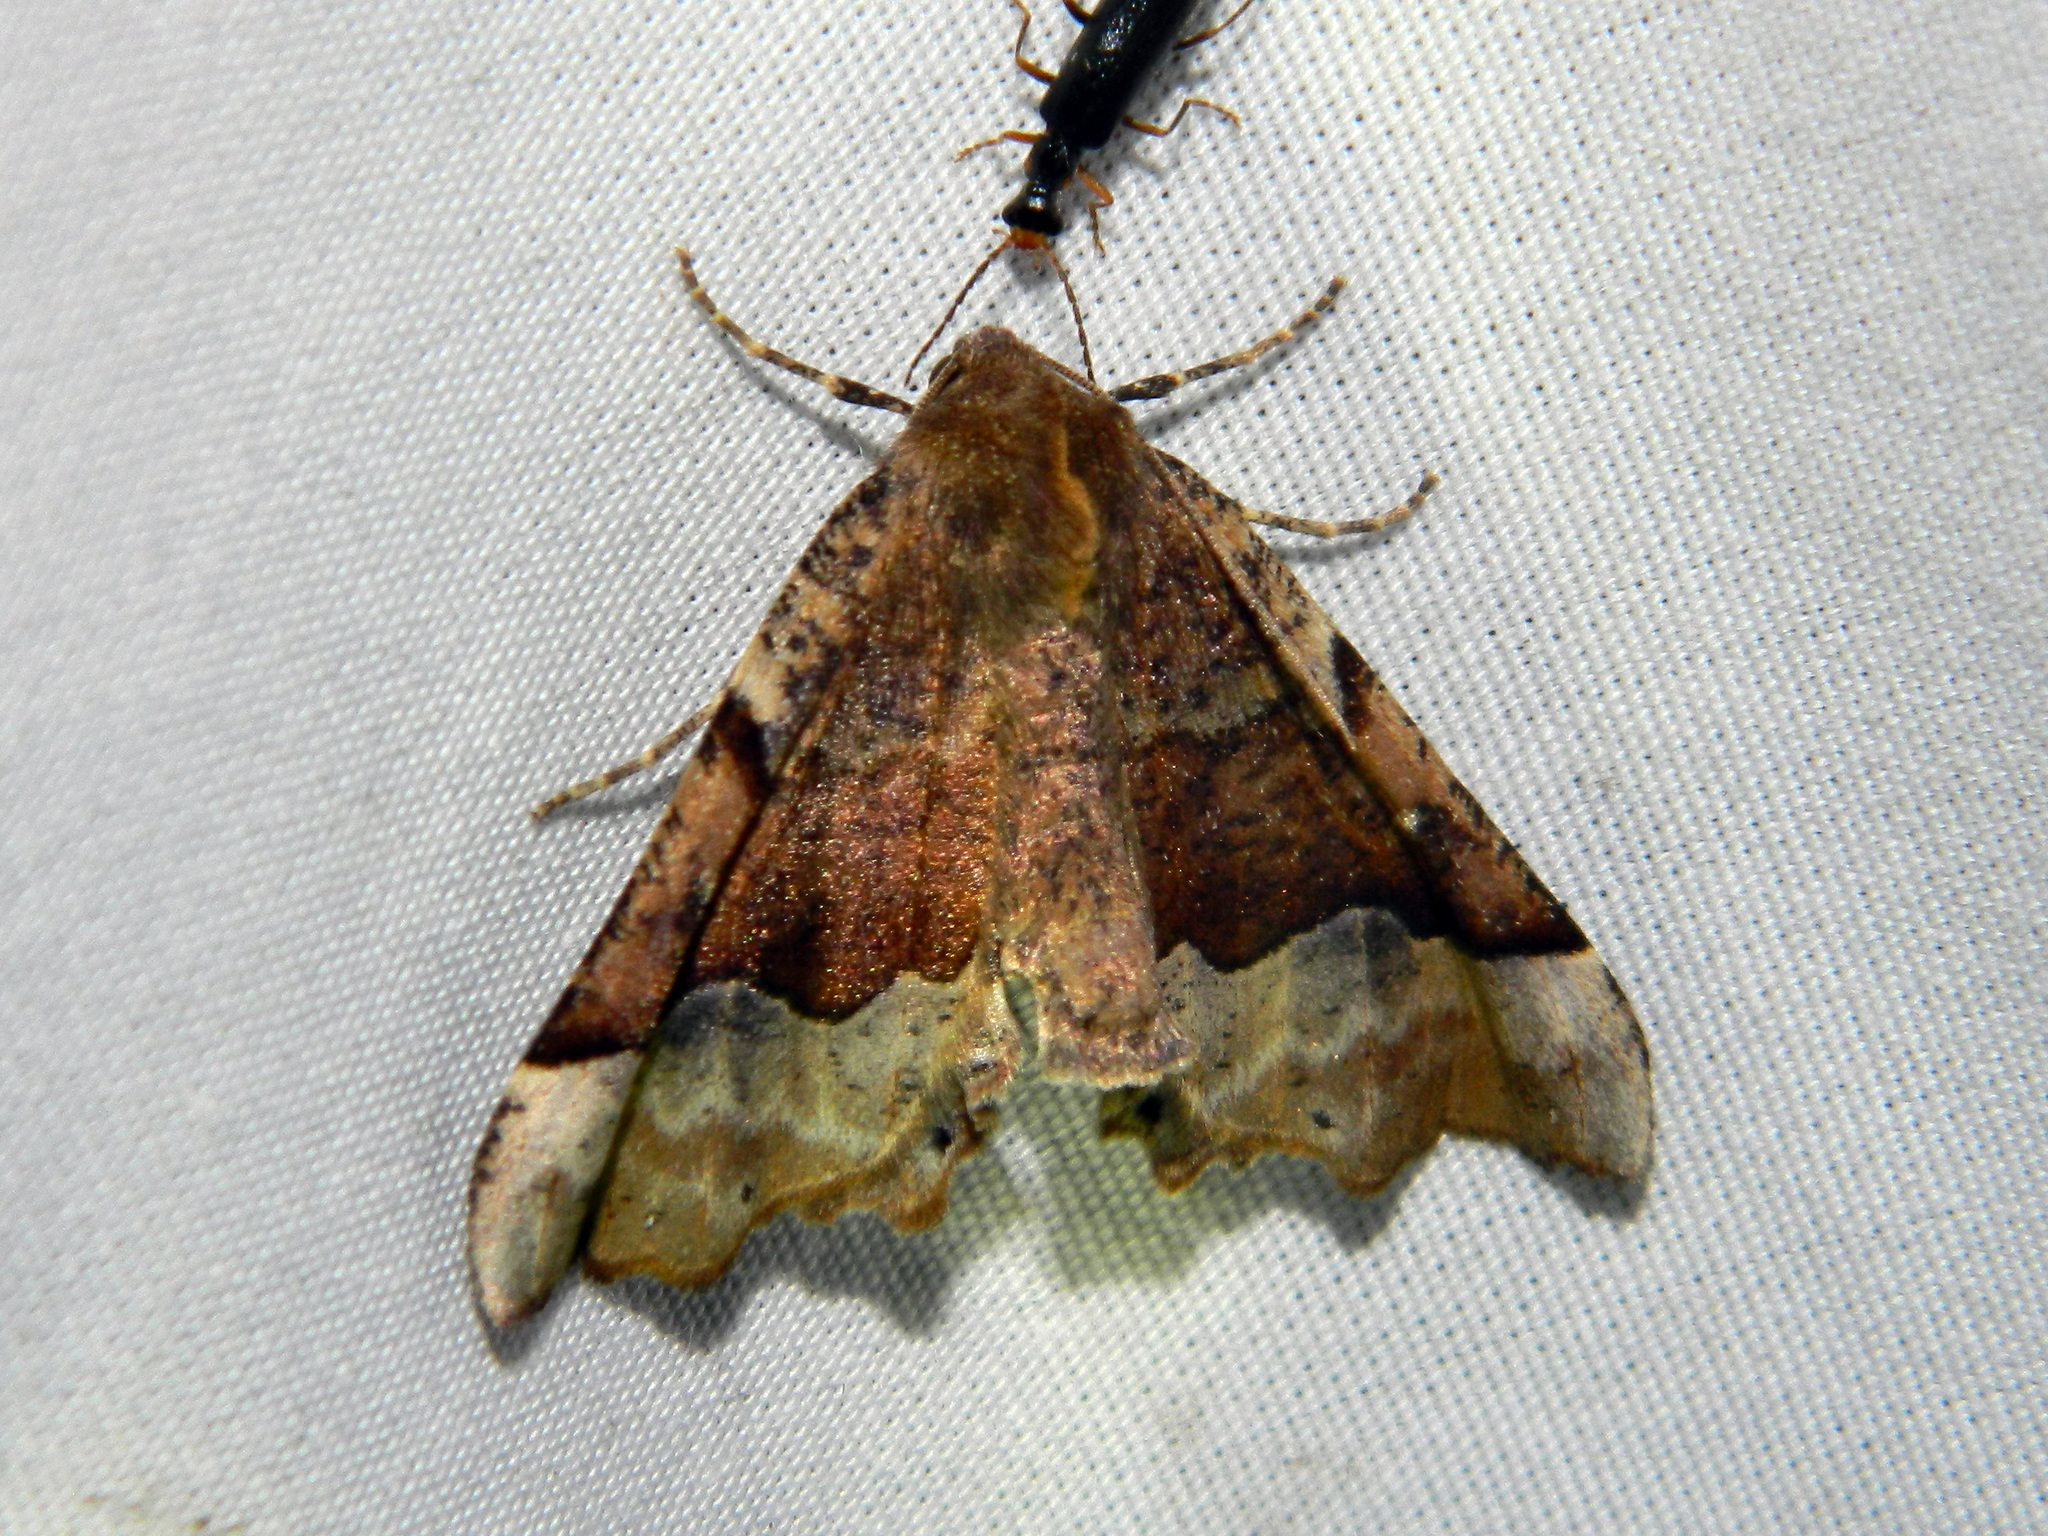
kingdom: Animalia
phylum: Arthropoda
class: Insecta
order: Lepidoptera
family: Geometridae
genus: Pero
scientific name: Pero morrisonaria
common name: Morrison's pero
